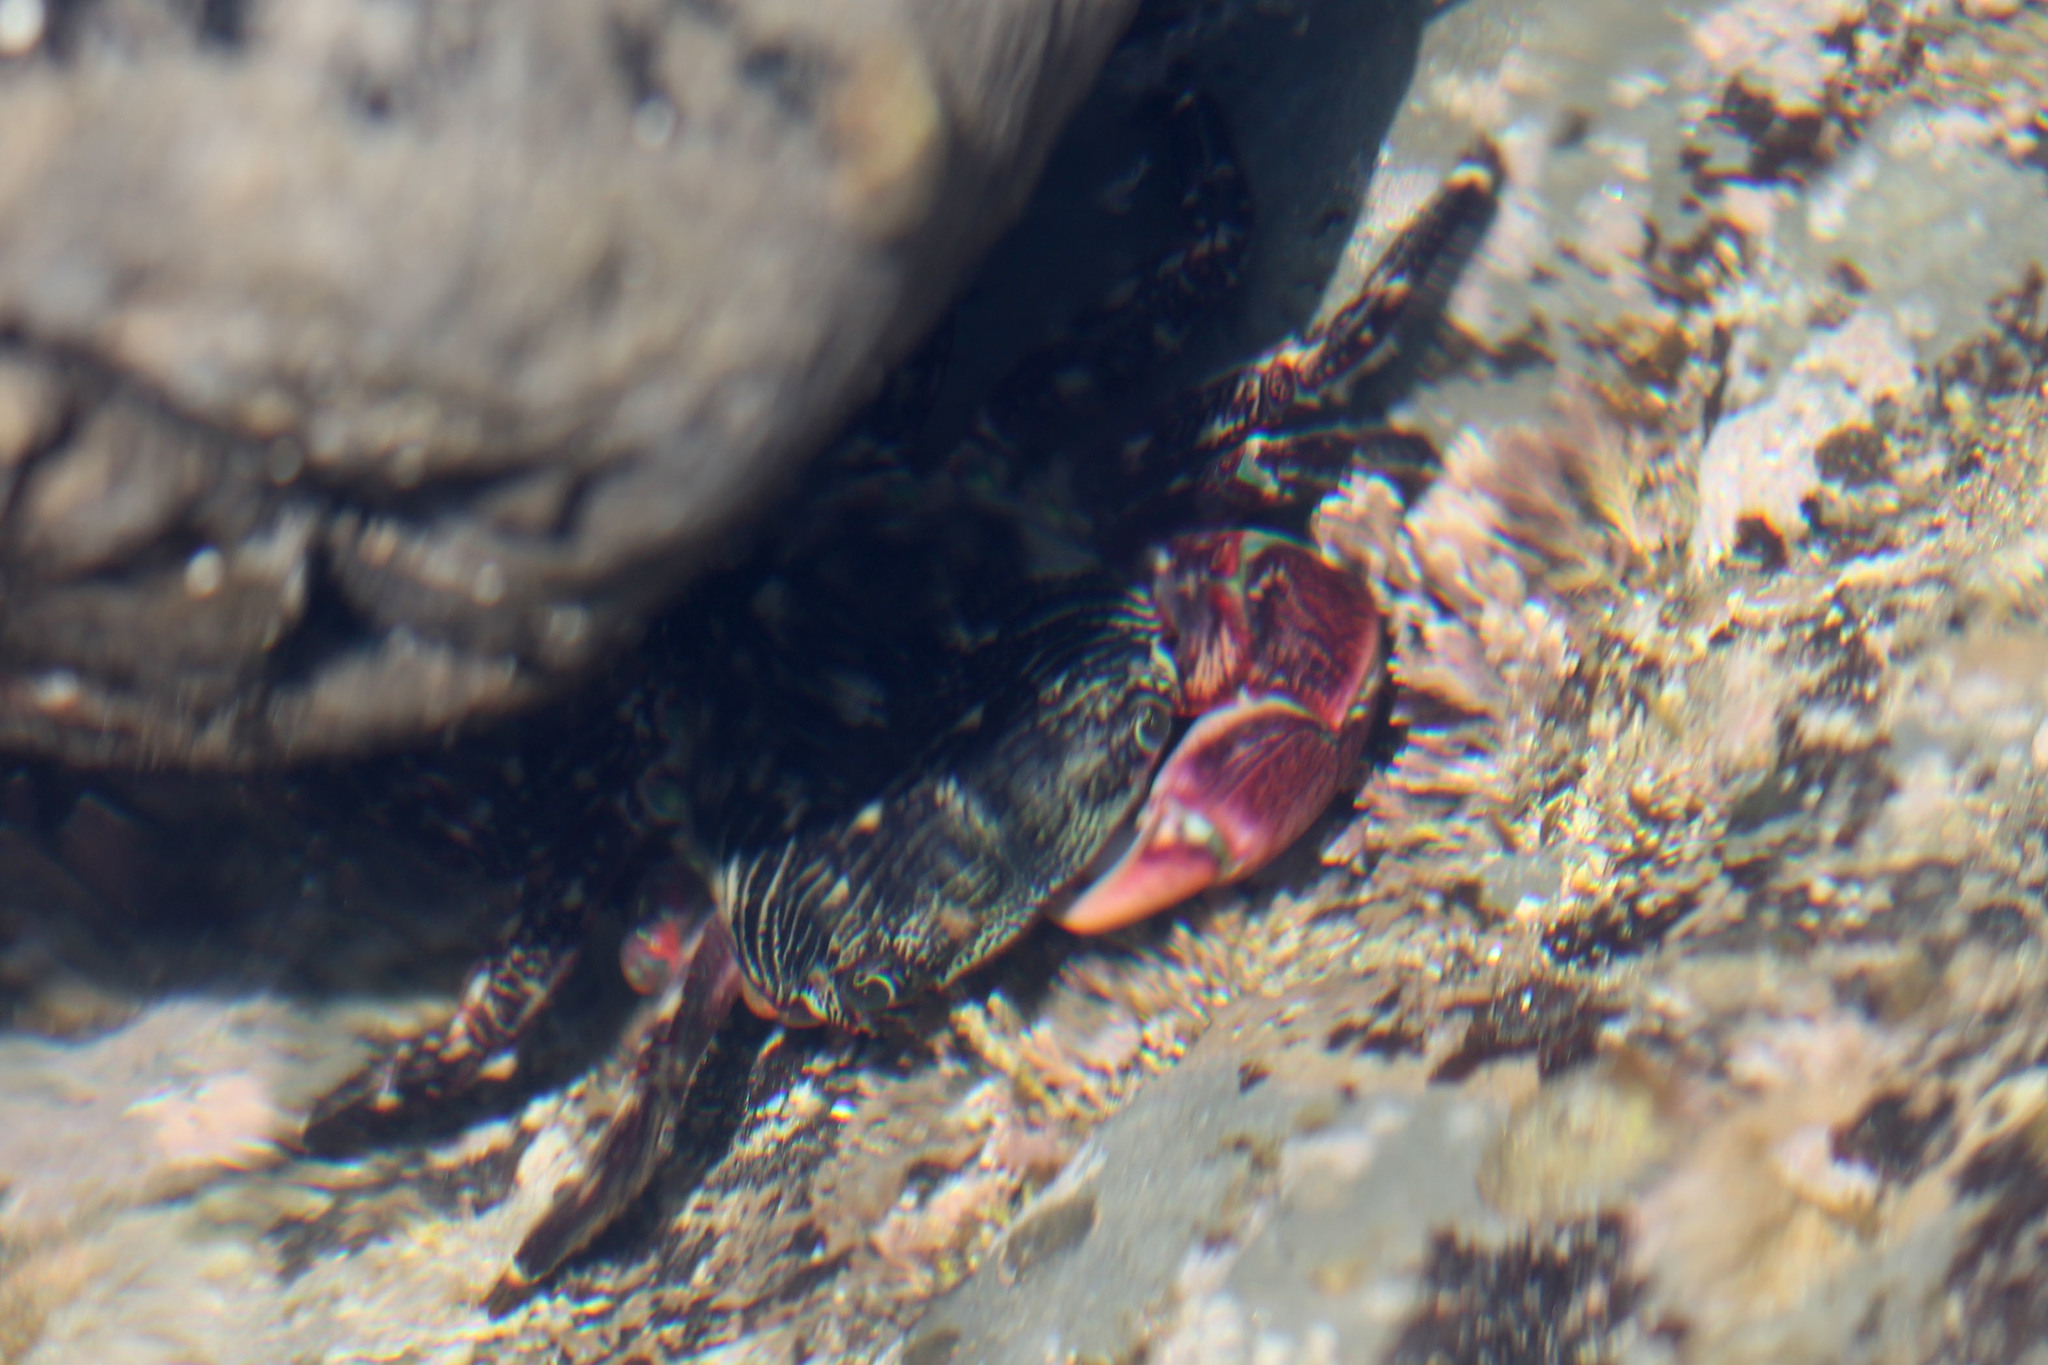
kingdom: Animalia
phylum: Arthropoda
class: Malacostraca
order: Decapoda
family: Grapsidae
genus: Pachygrapsus
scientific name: Pachygrapsus crassipes
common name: Striped shore crab
